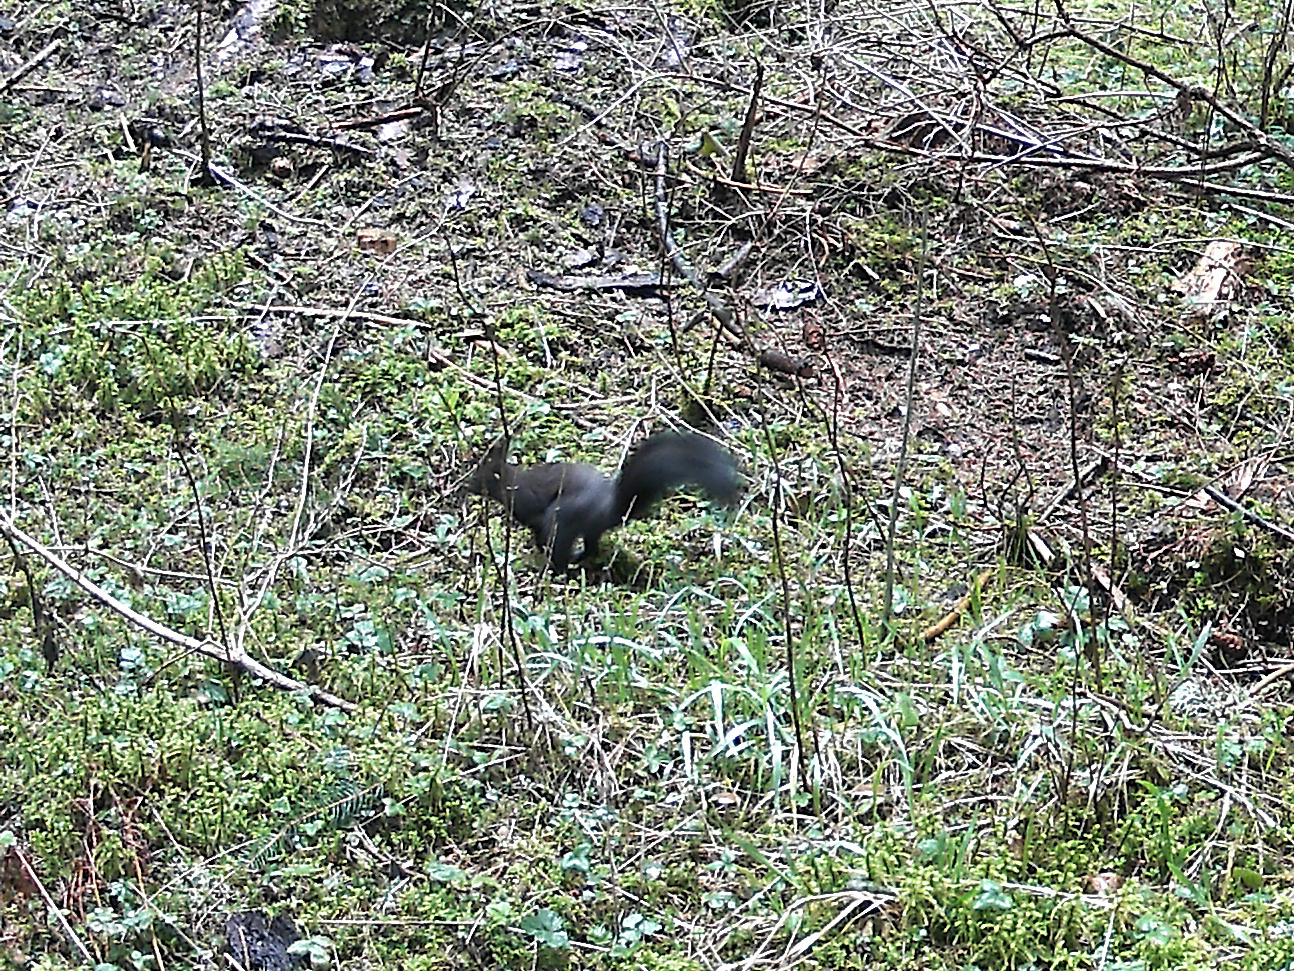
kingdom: Animalia
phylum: Chordata
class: Mammalia
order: Rodentia
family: Sciuridae
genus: Sciurus
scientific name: Sciurus vulgaris
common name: Eurasian red squirrel
